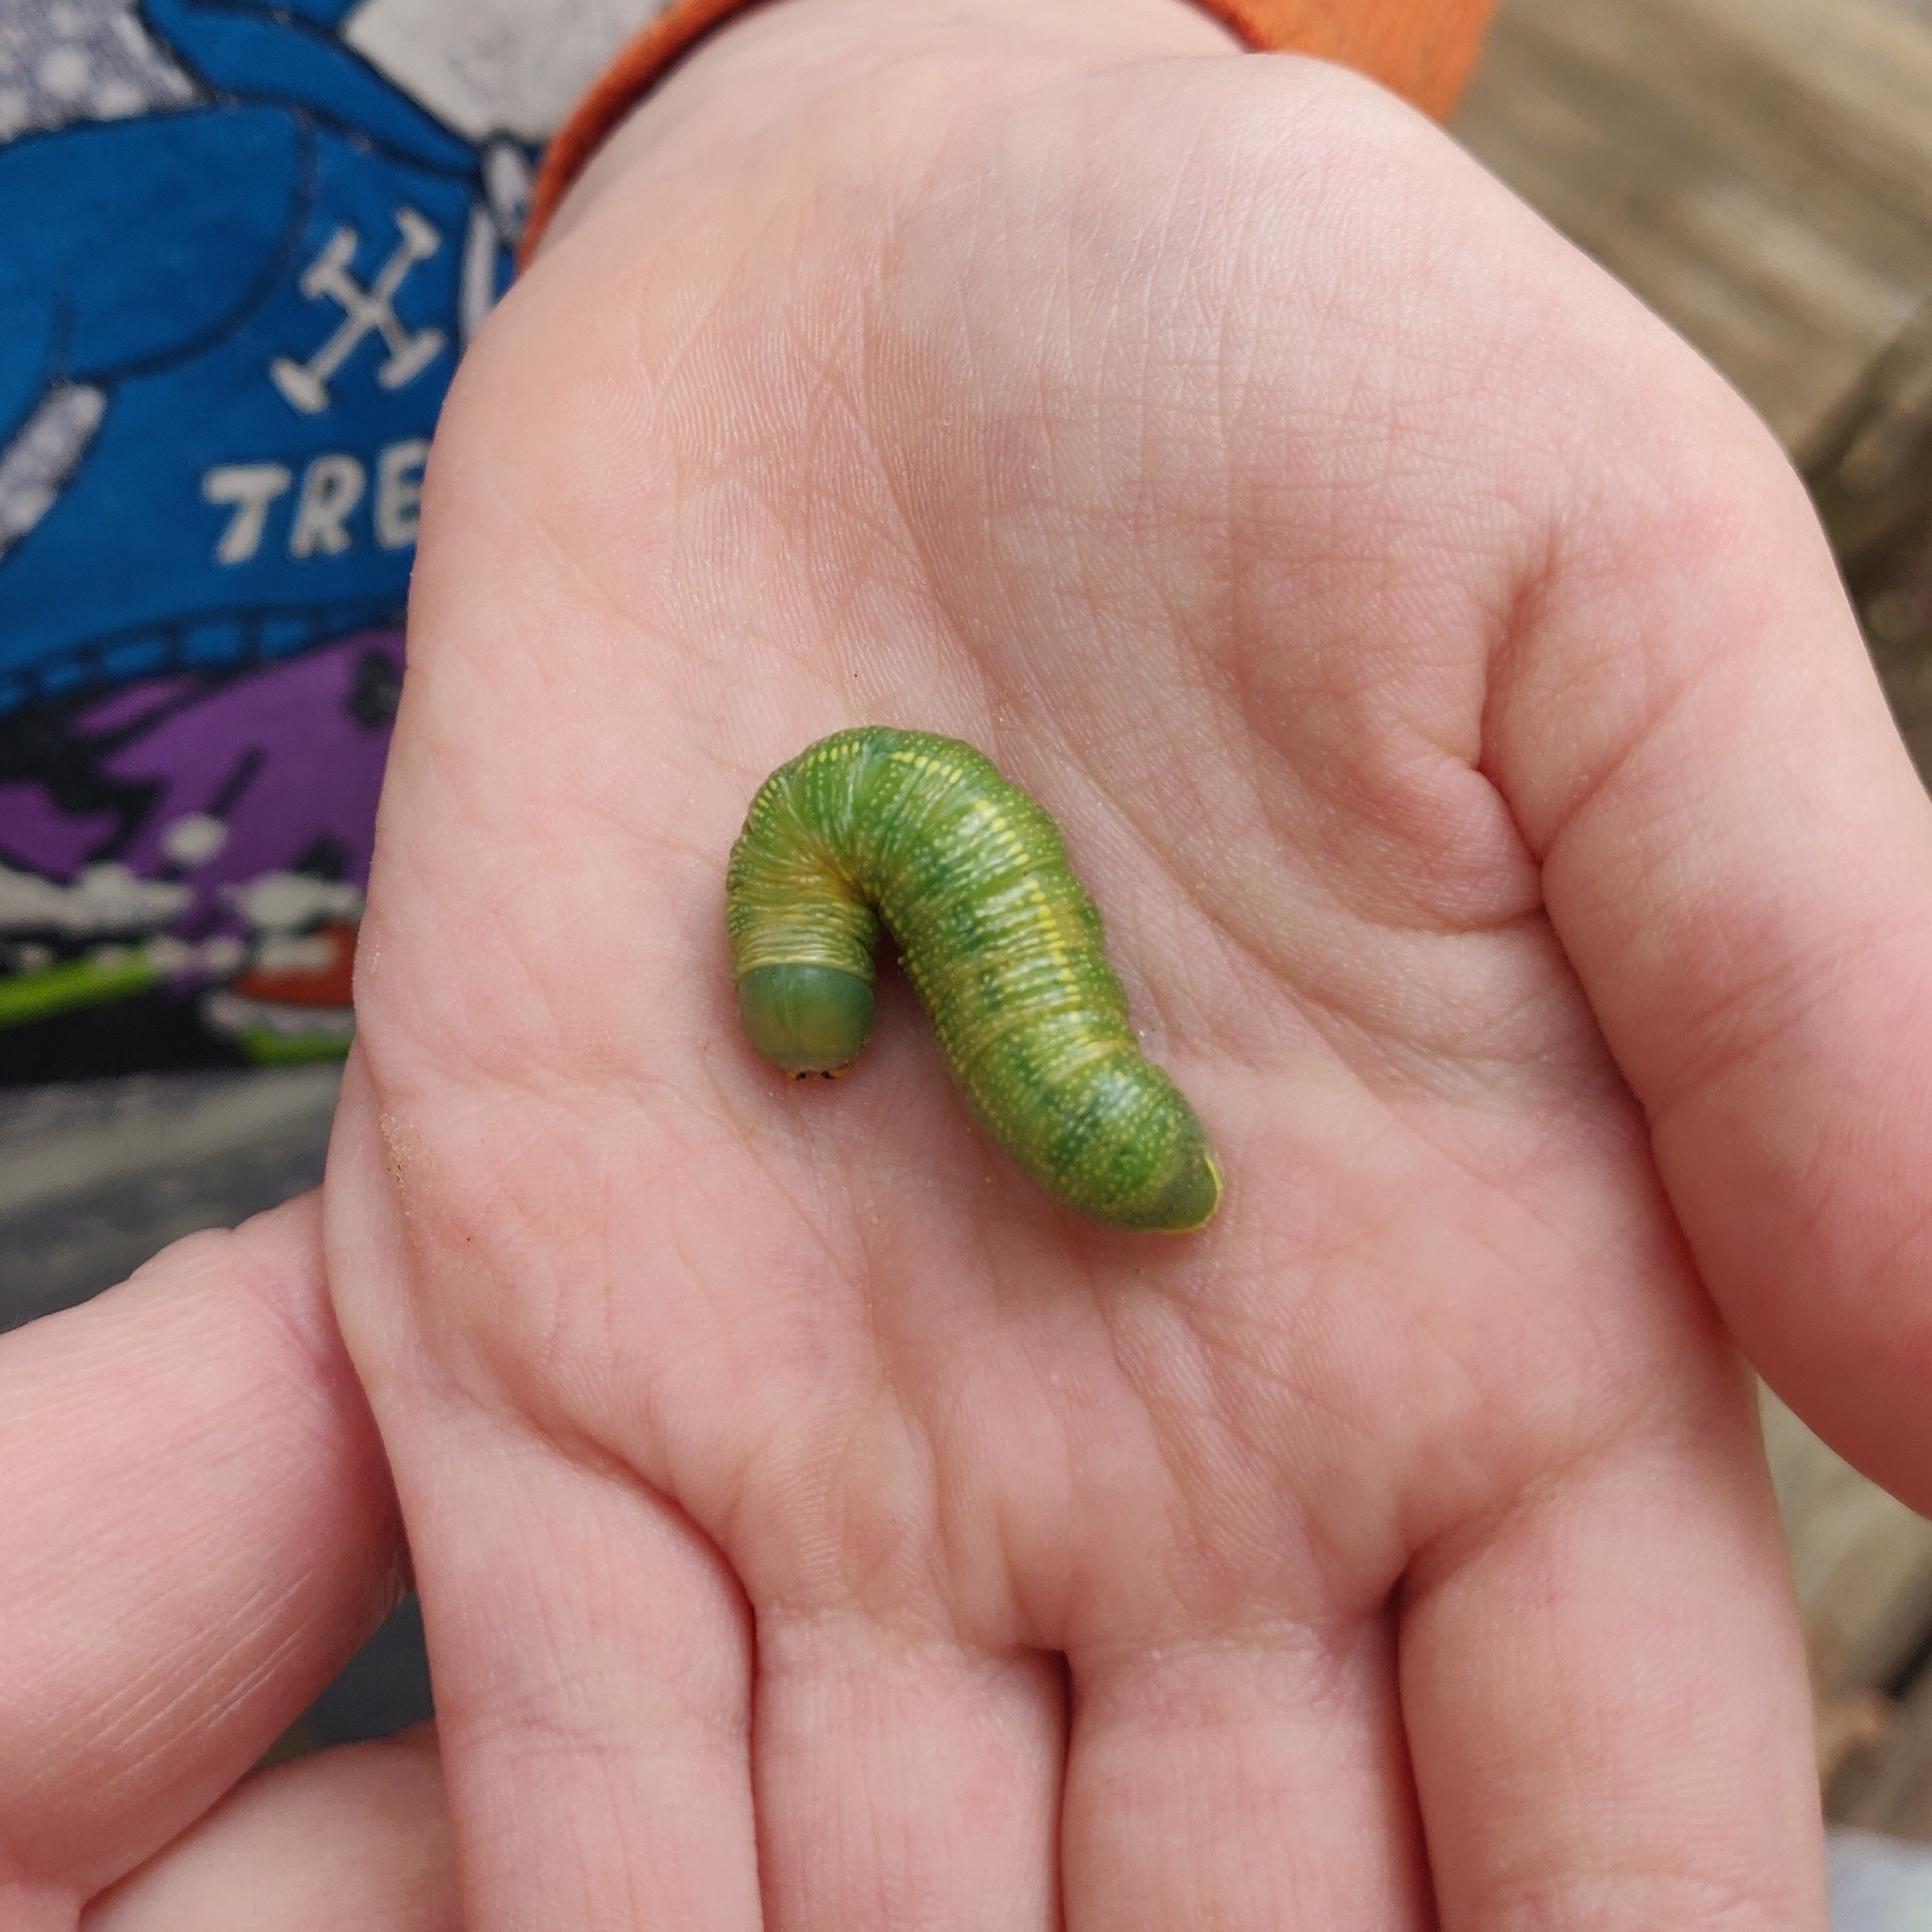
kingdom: Animalia
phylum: Arthropoda
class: Insecta
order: Lepidoptera
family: Notodontidae
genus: Nadata
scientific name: Nadata gibbosa
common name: White-dotted prominent
